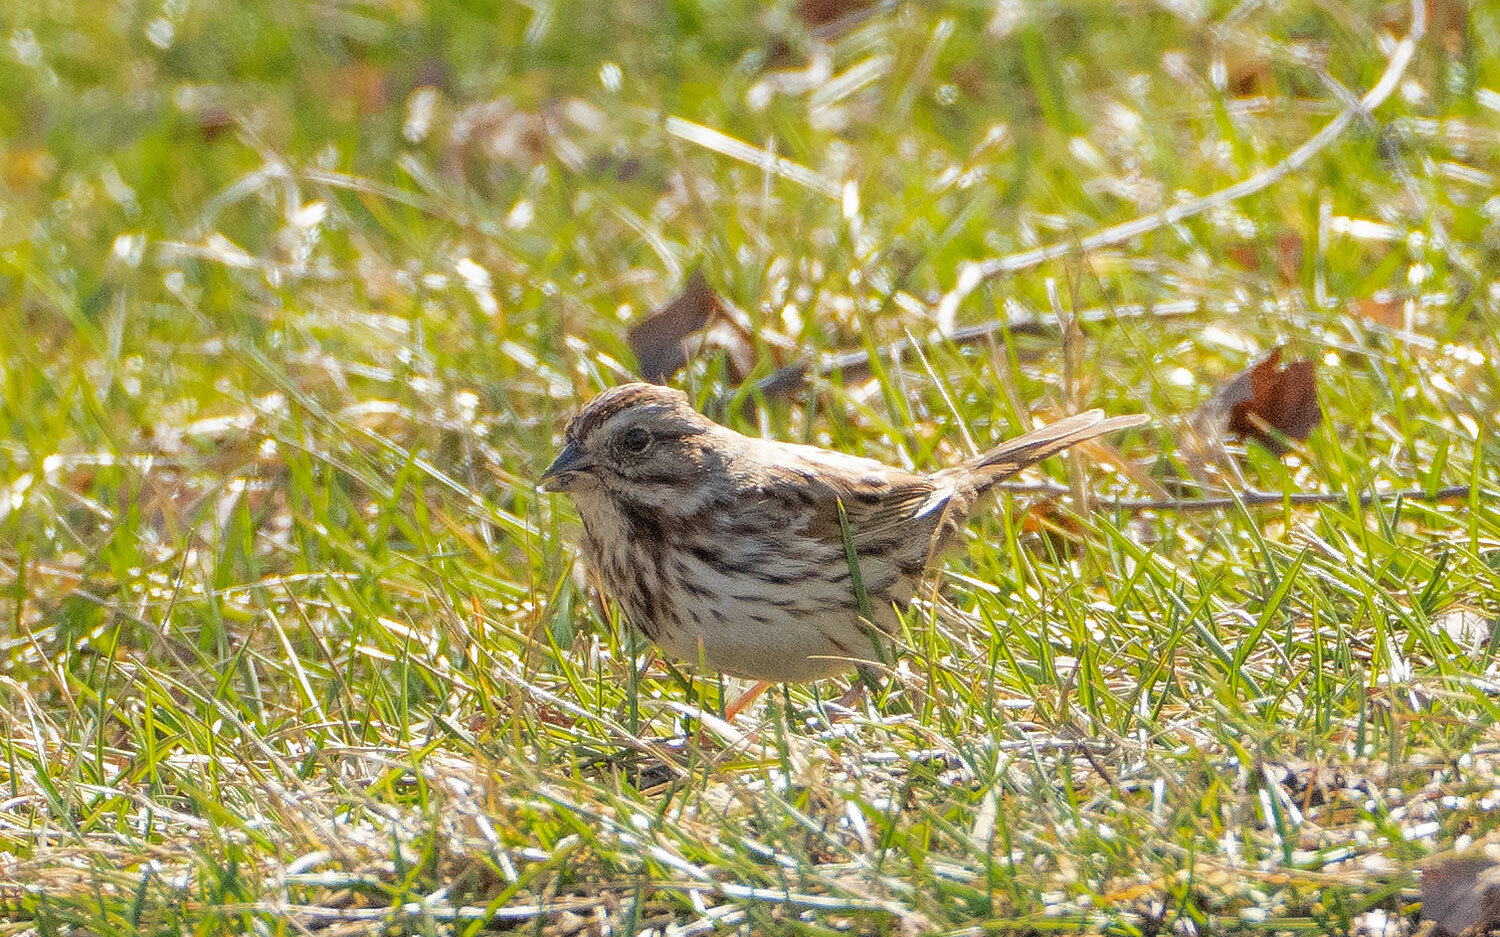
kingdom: Animalia
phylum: Chordata
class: Aves
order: Passeriformes
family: Passerellidae
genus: Melospiza
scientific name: Melospiza melodia
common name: Song sparrow
